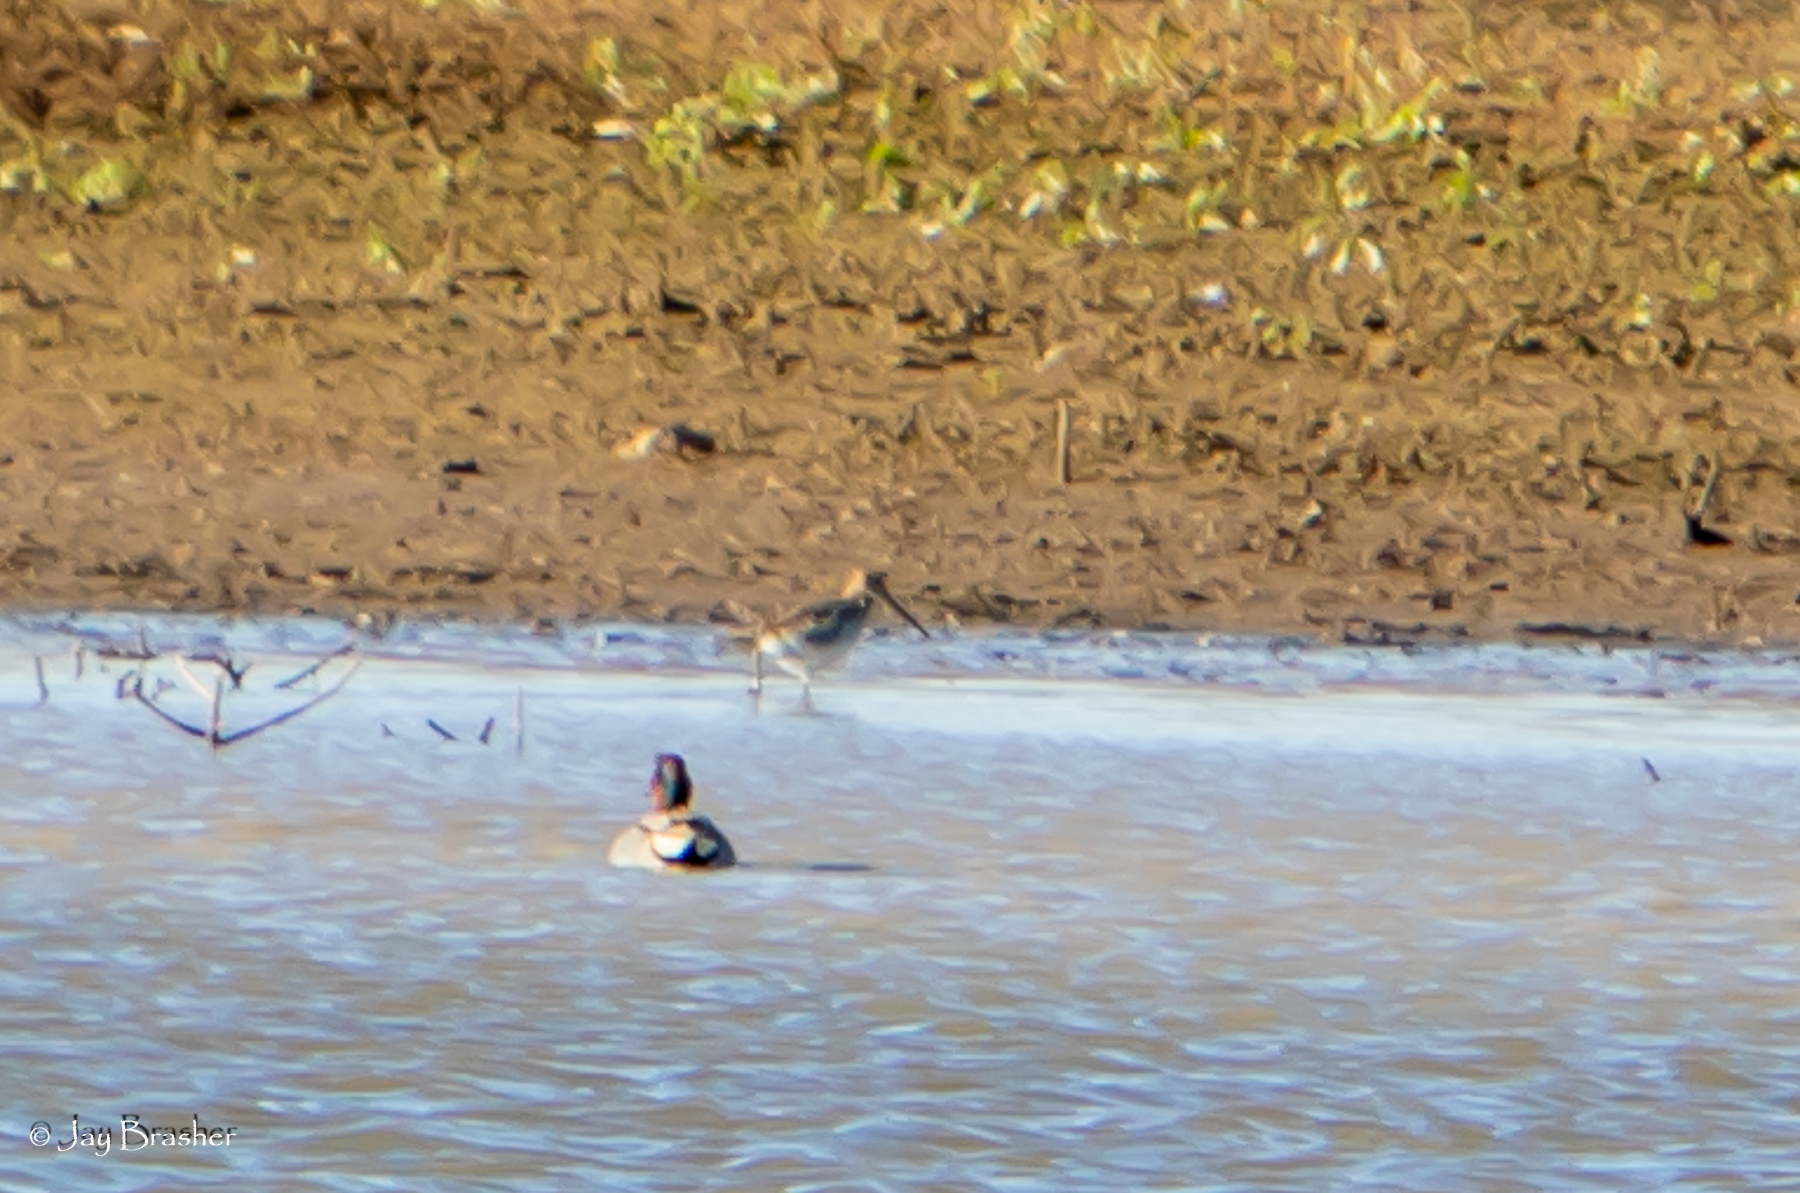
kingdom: Animalia
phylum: Chordata
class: Aves
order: Charadriiformes
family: Scolopacidae
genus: Gallinago
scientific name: Gallinago delicata
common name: Wilson's snipe
